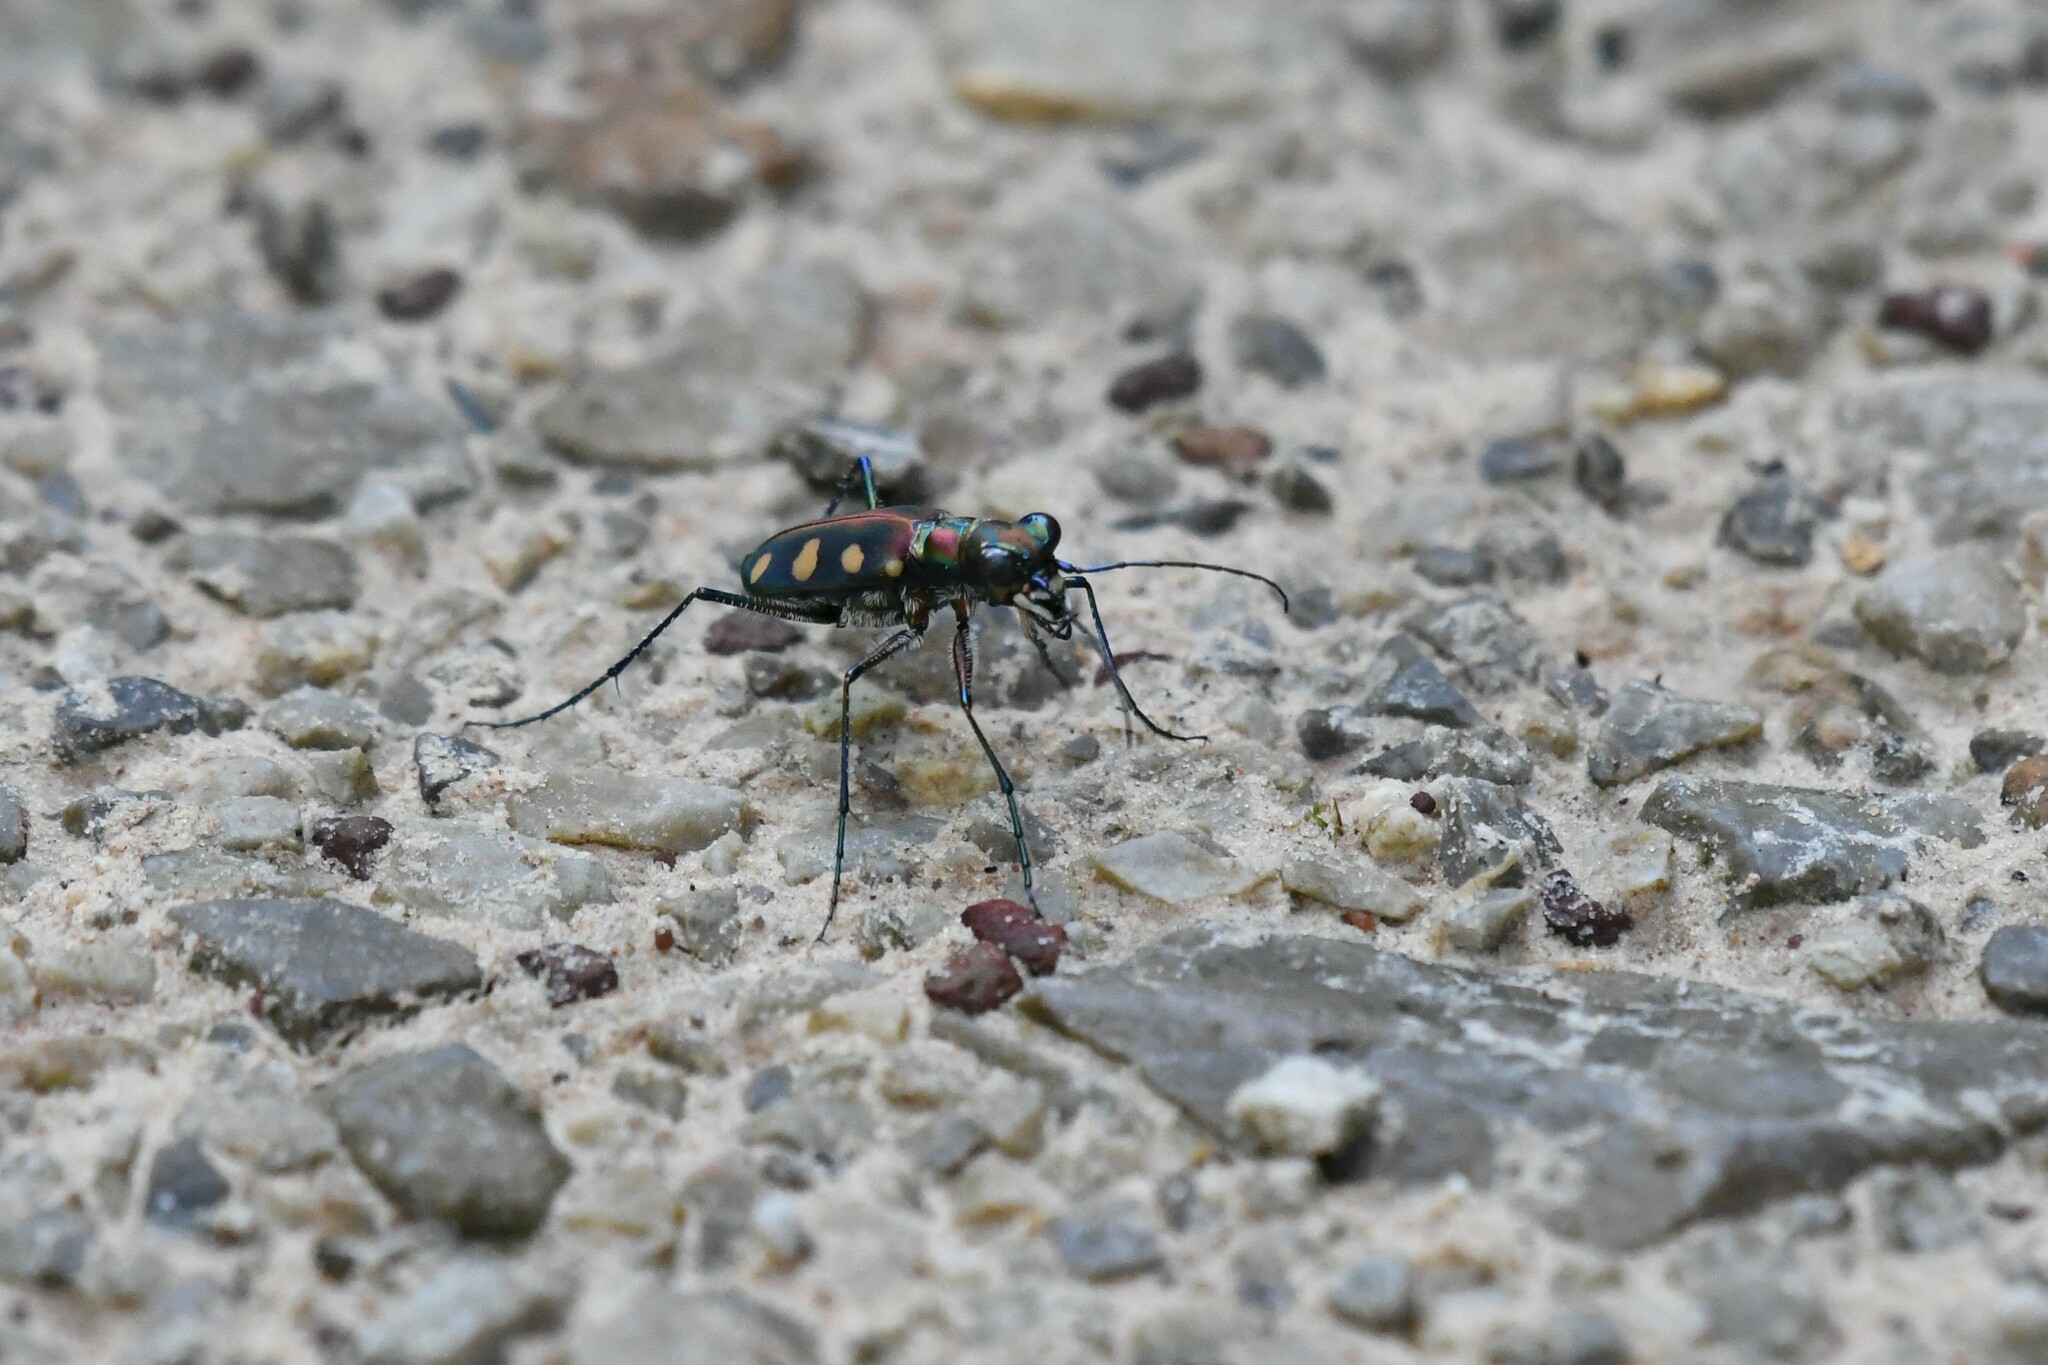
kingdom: Animalia
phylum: Arthropoda
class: Insecta
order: Coleoptera
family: Carabidae
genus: Cicindela
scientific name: Cicindela aurulenta
